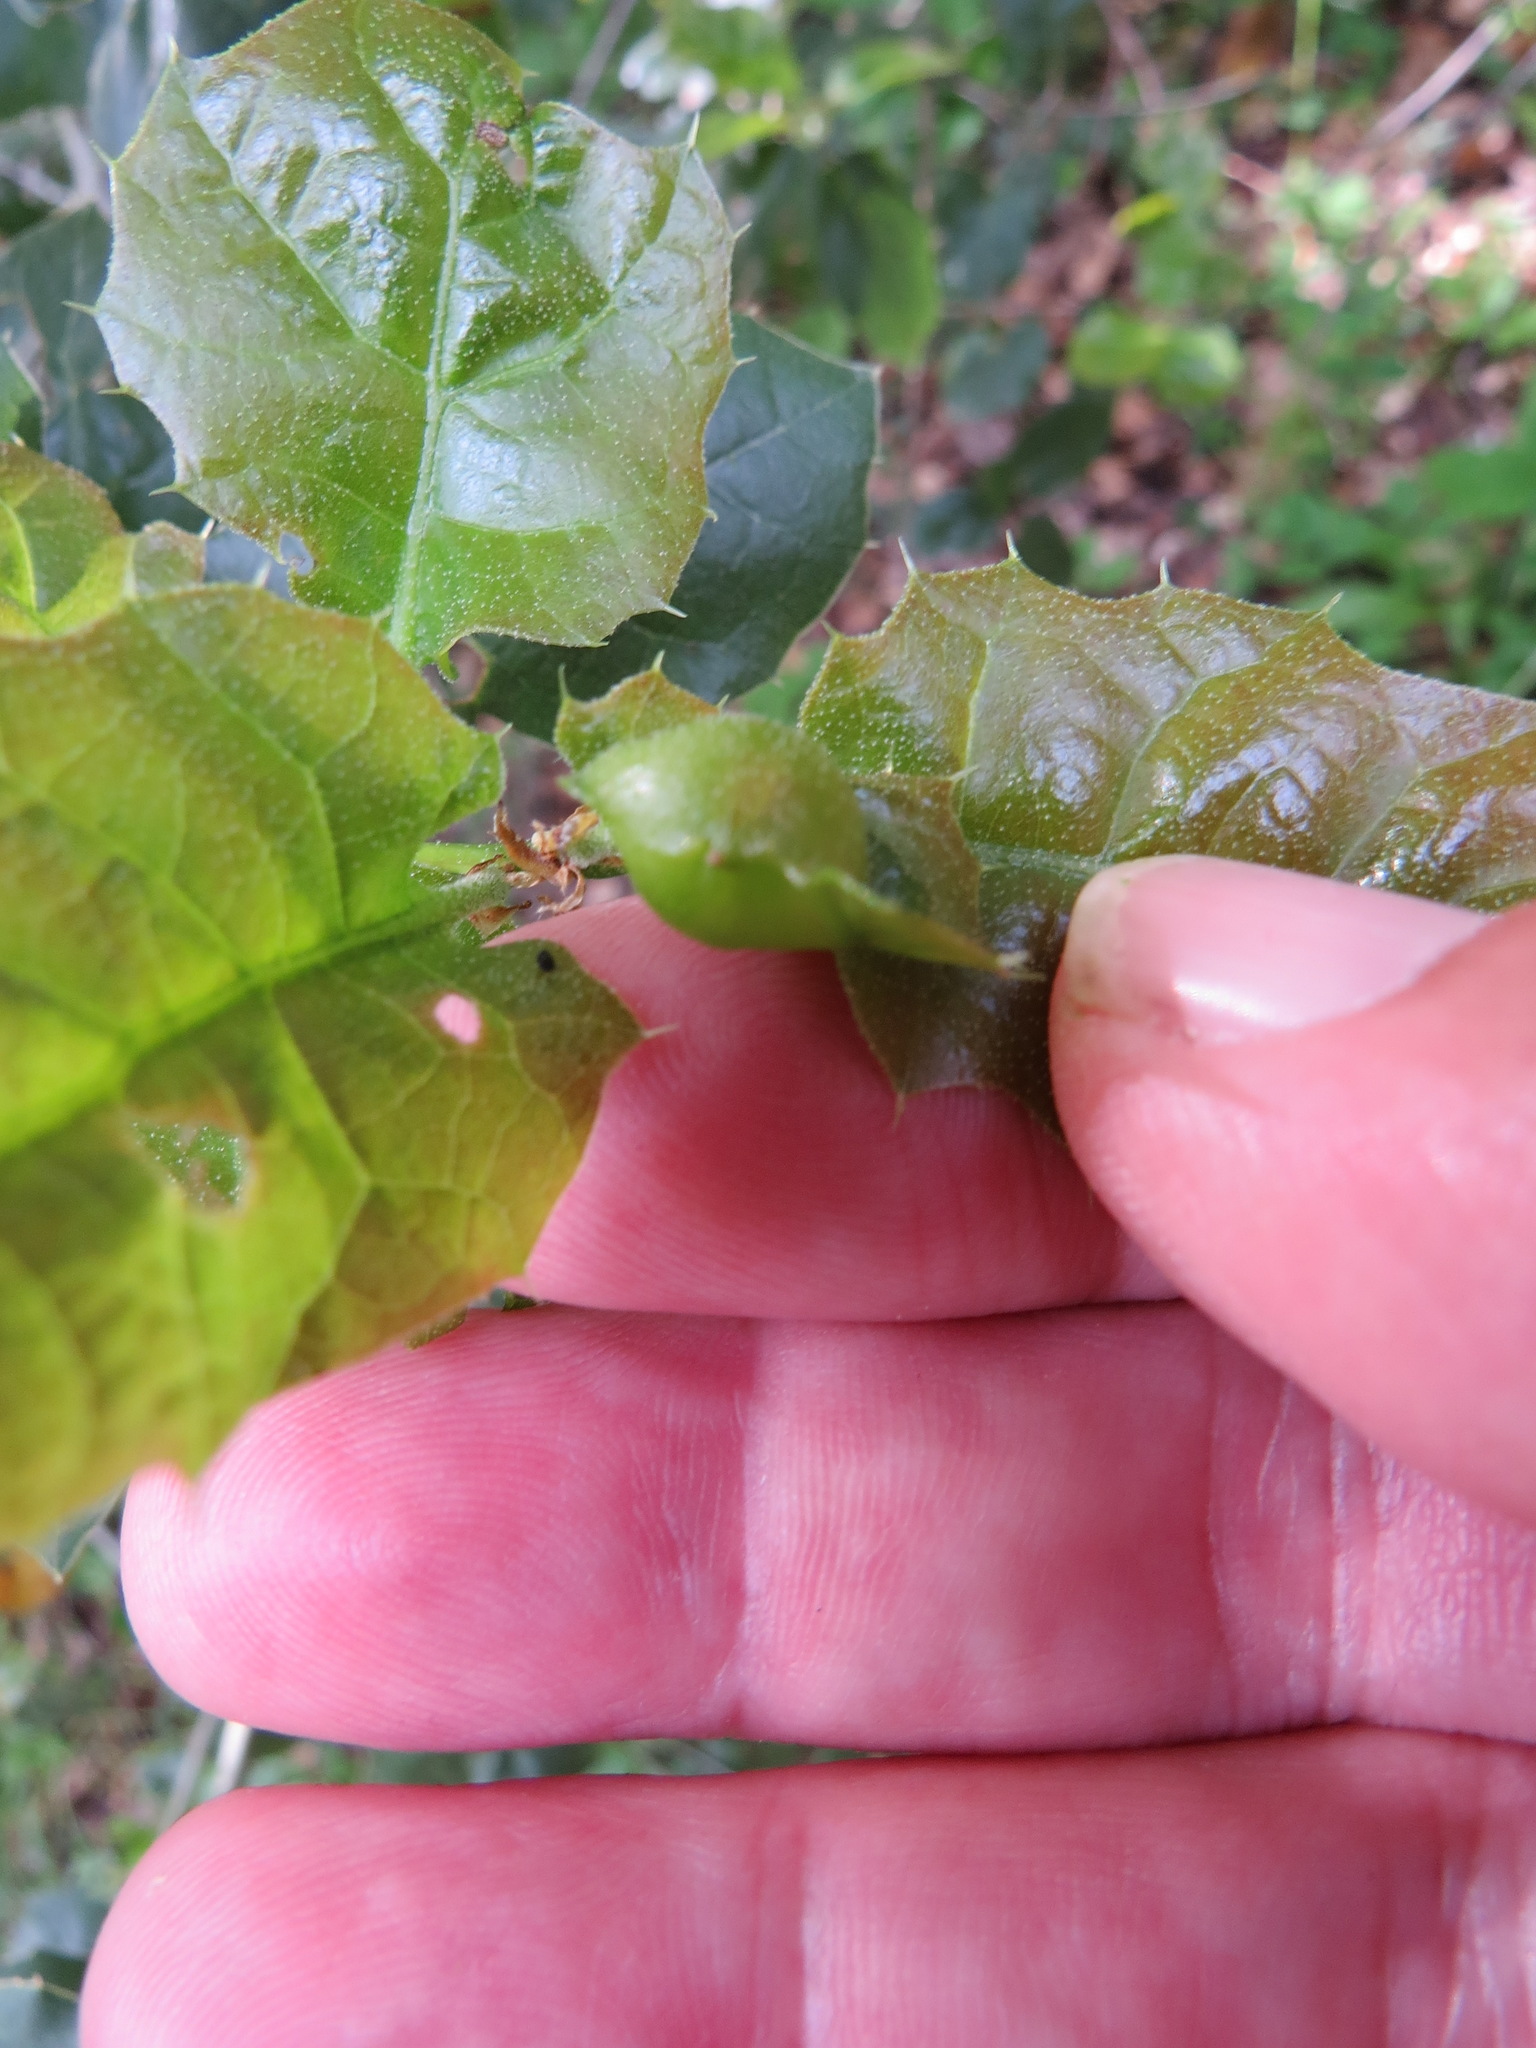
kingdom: Animalia
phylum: Arthropoda
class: Insecta
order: Hymenoptera
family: Cynipidae
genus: Callirhytis
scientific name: Callirhytis
